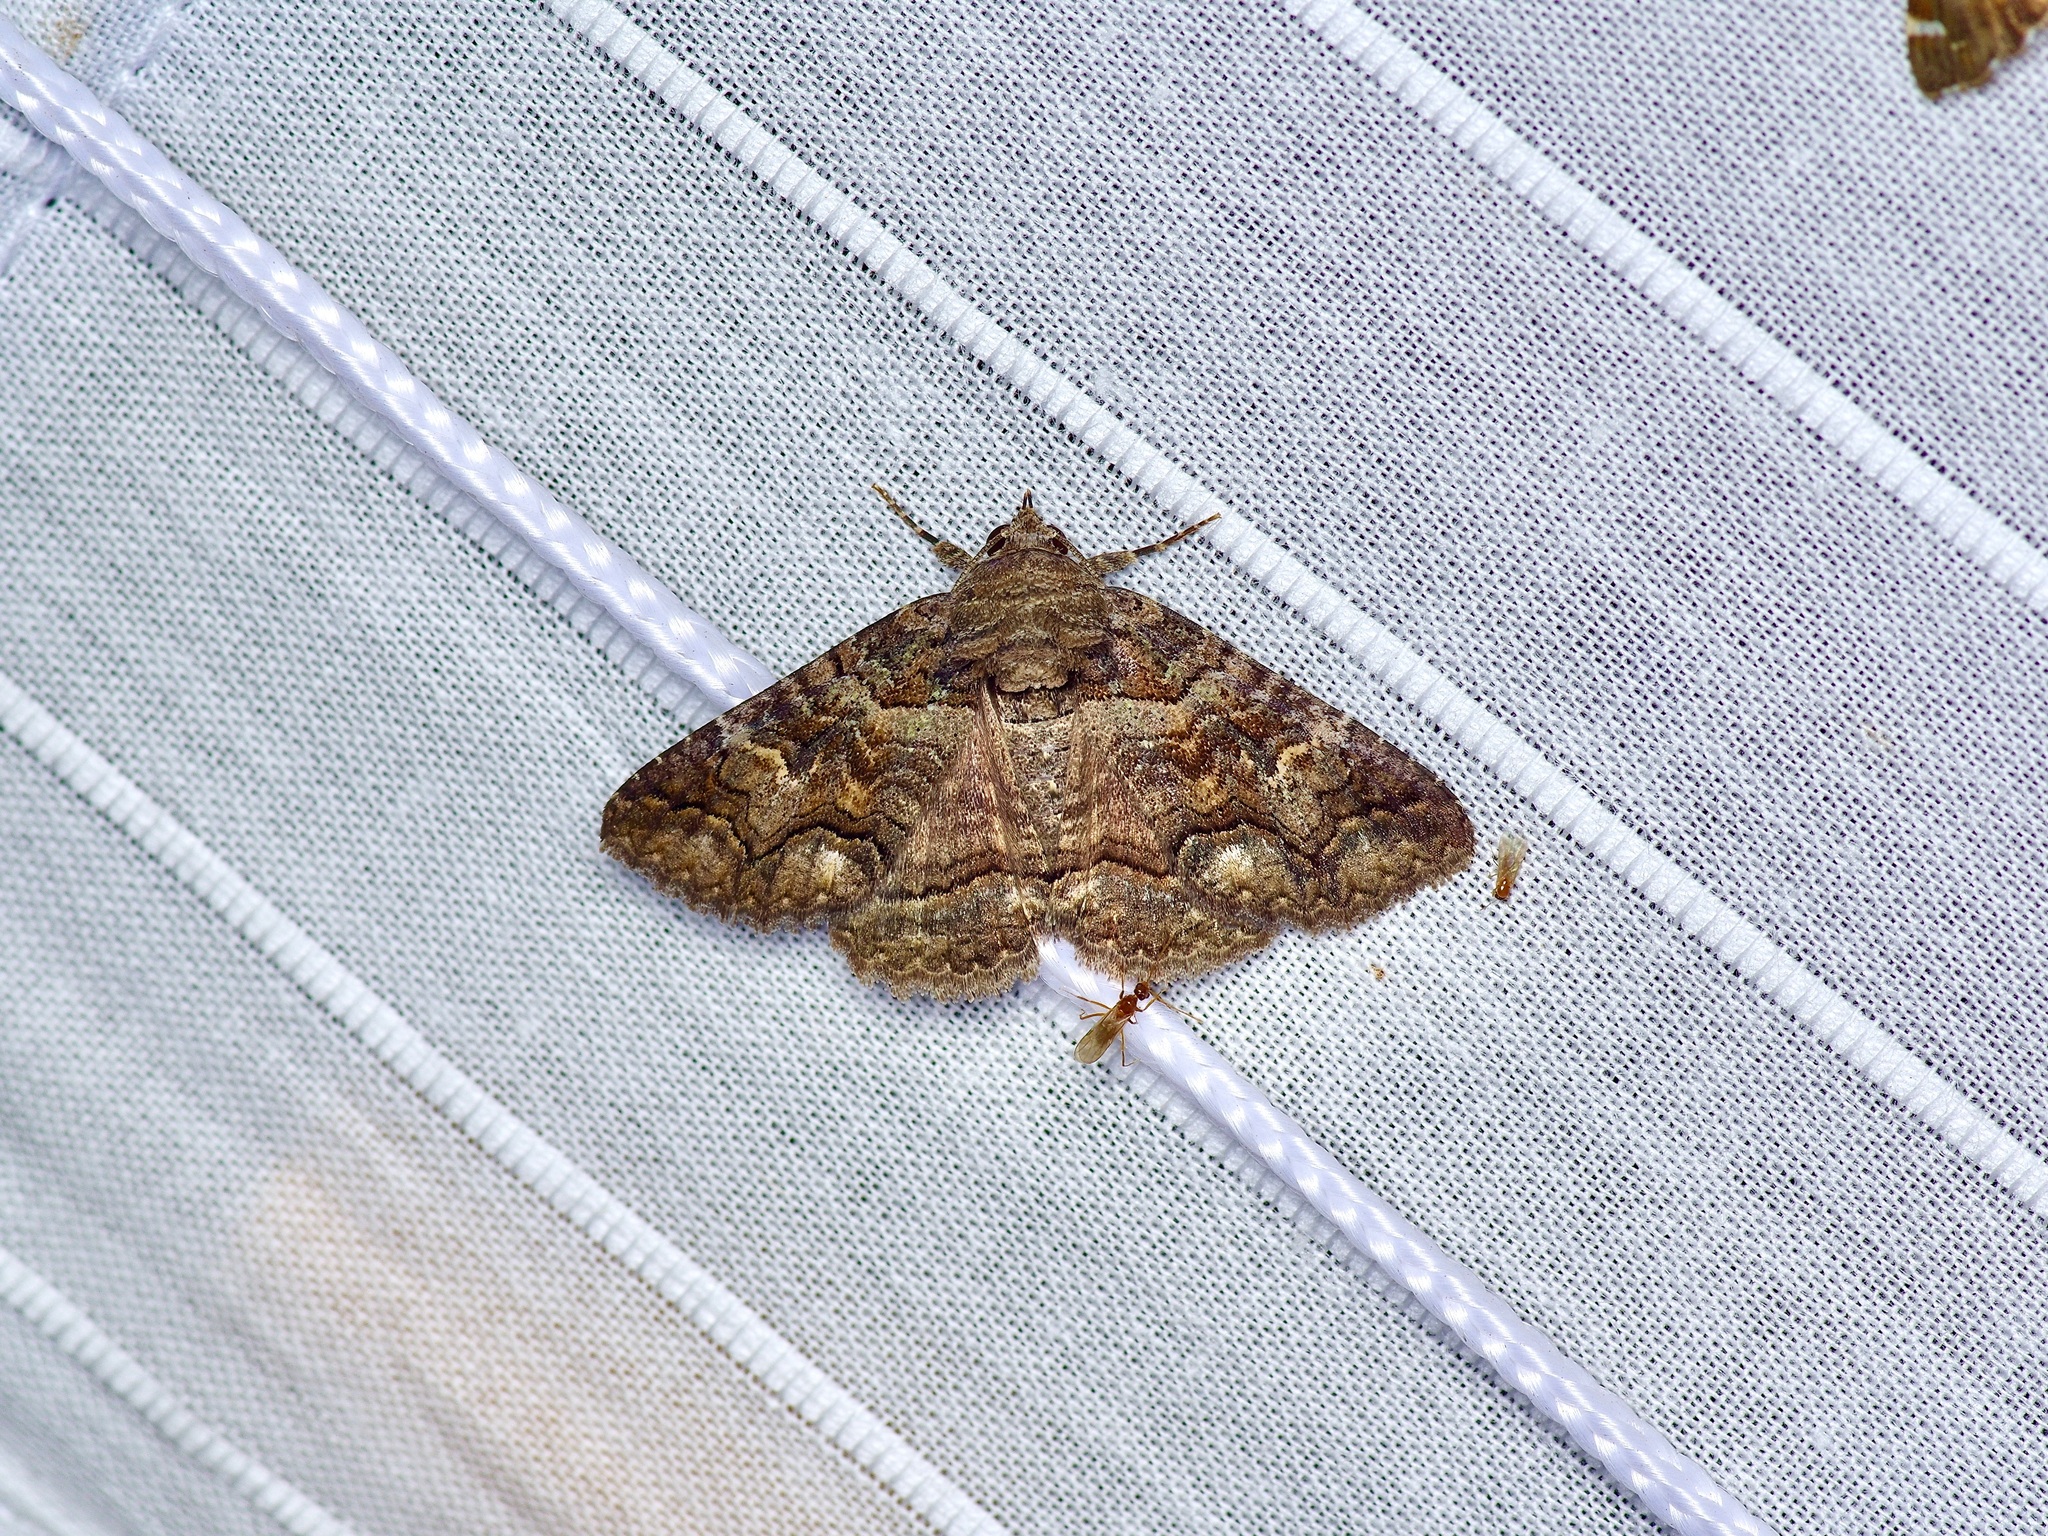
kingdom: Animalia
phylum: Arthropoda
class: Insecta
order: Lepidoptera
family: Erebidae
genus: Zale
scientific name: Zale edusina
